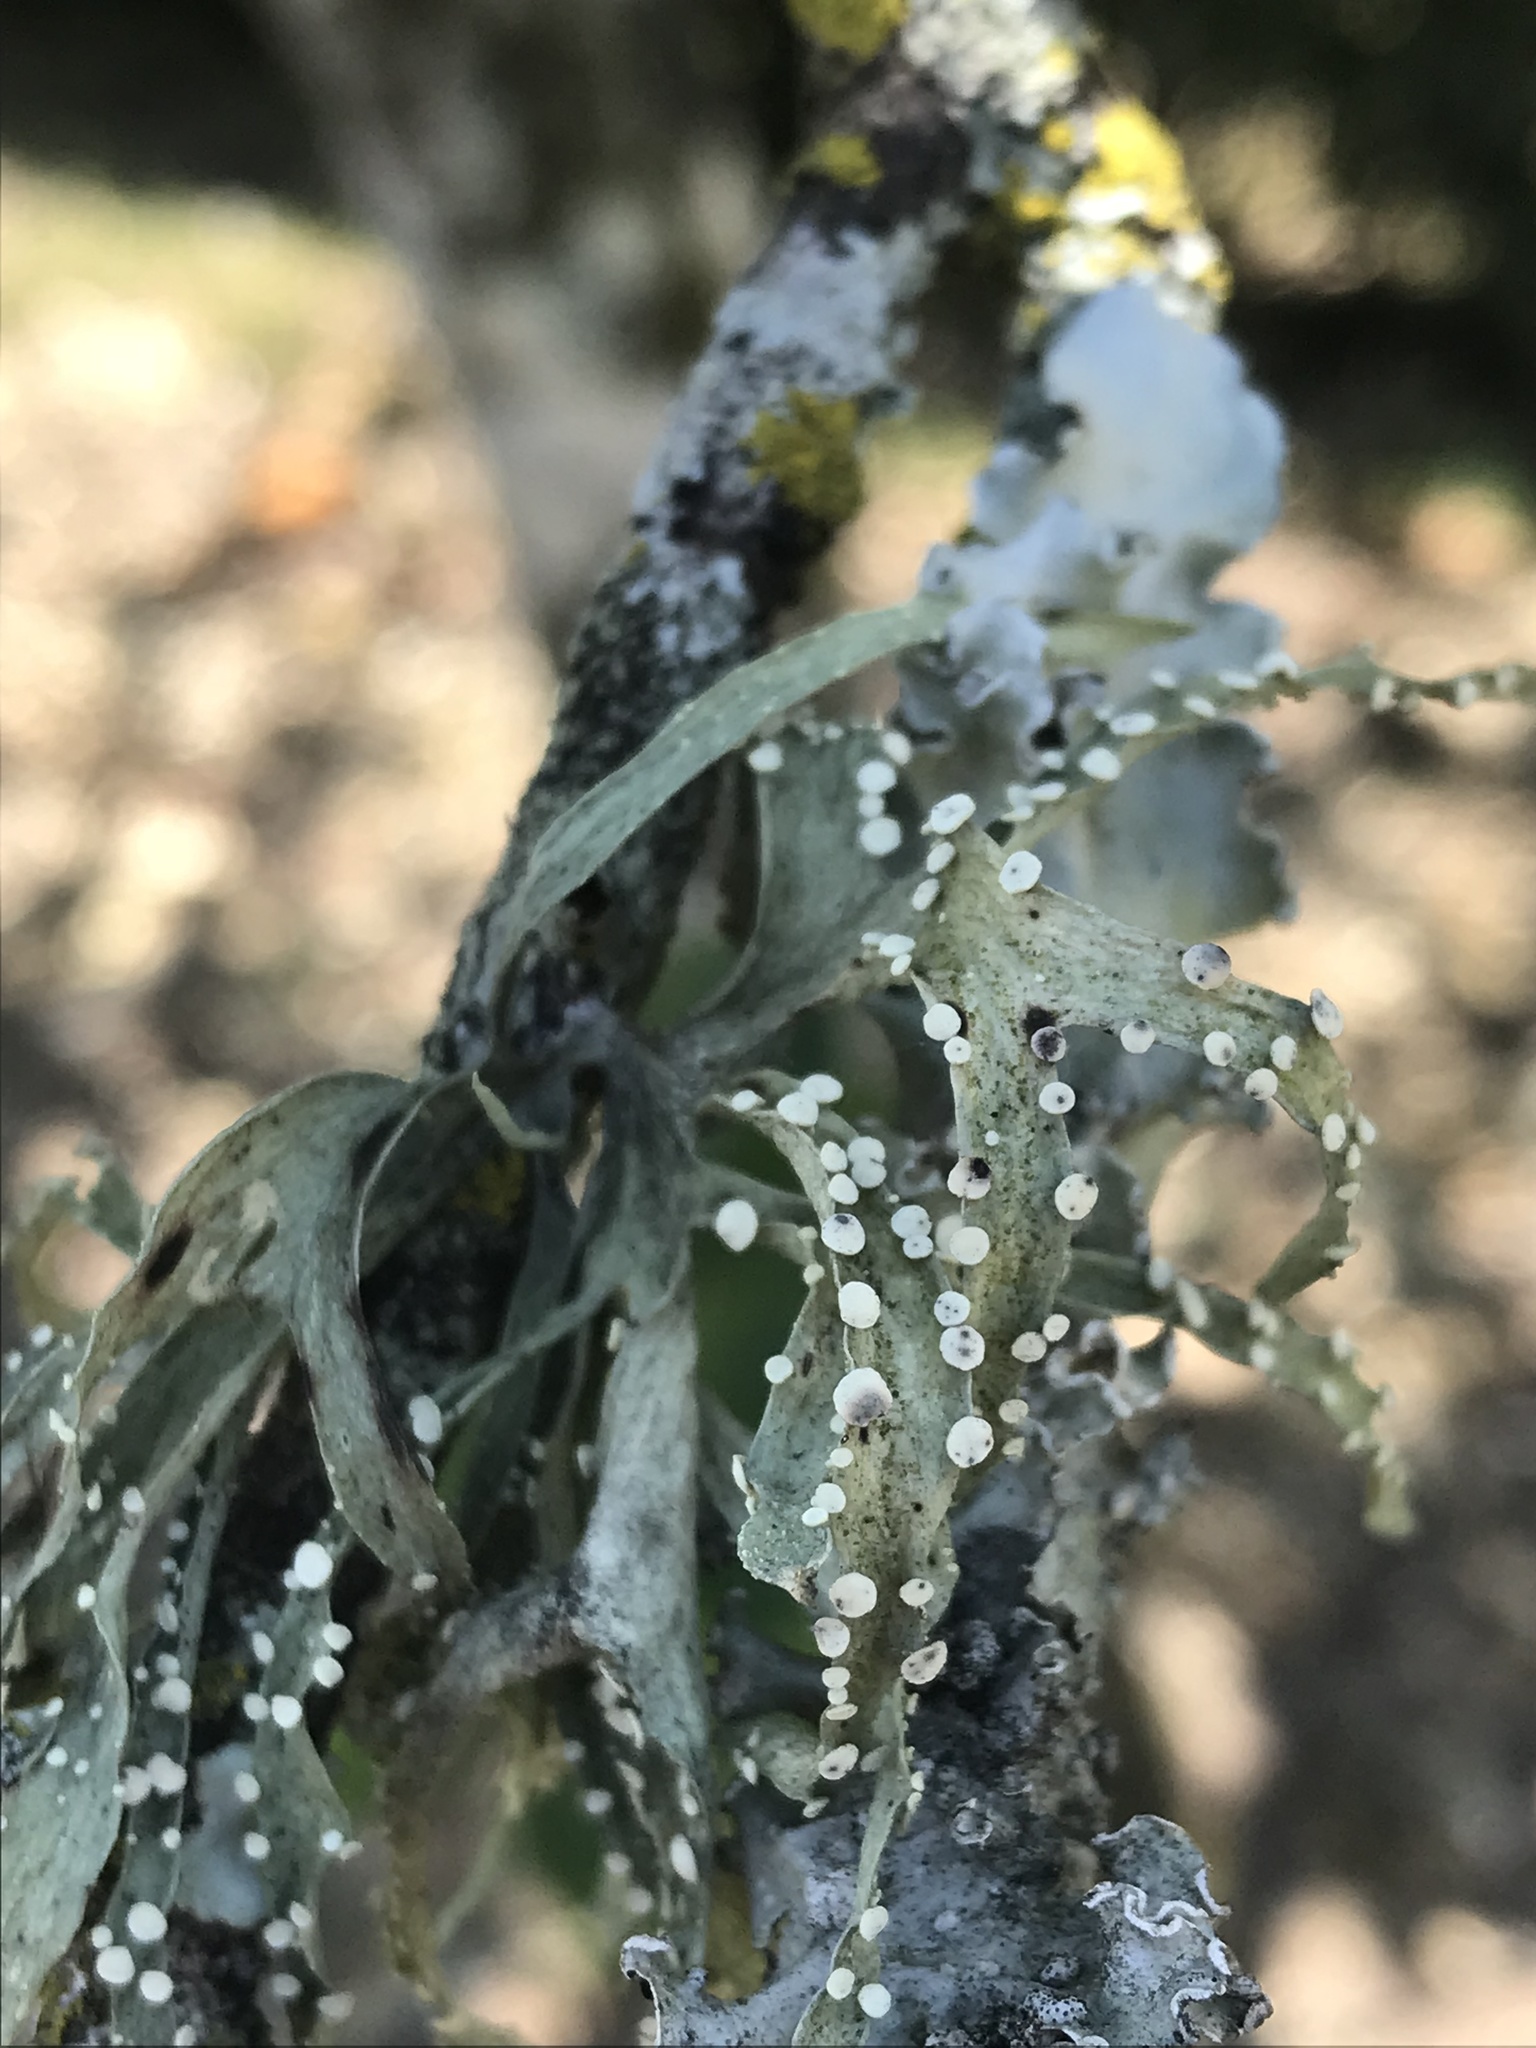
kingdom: Fungi
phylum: Ascomycota
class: Lecanoromycetes
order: Lecanorales
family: Ramalinaceae
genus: Ramalina
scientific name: Ramalina celastri
